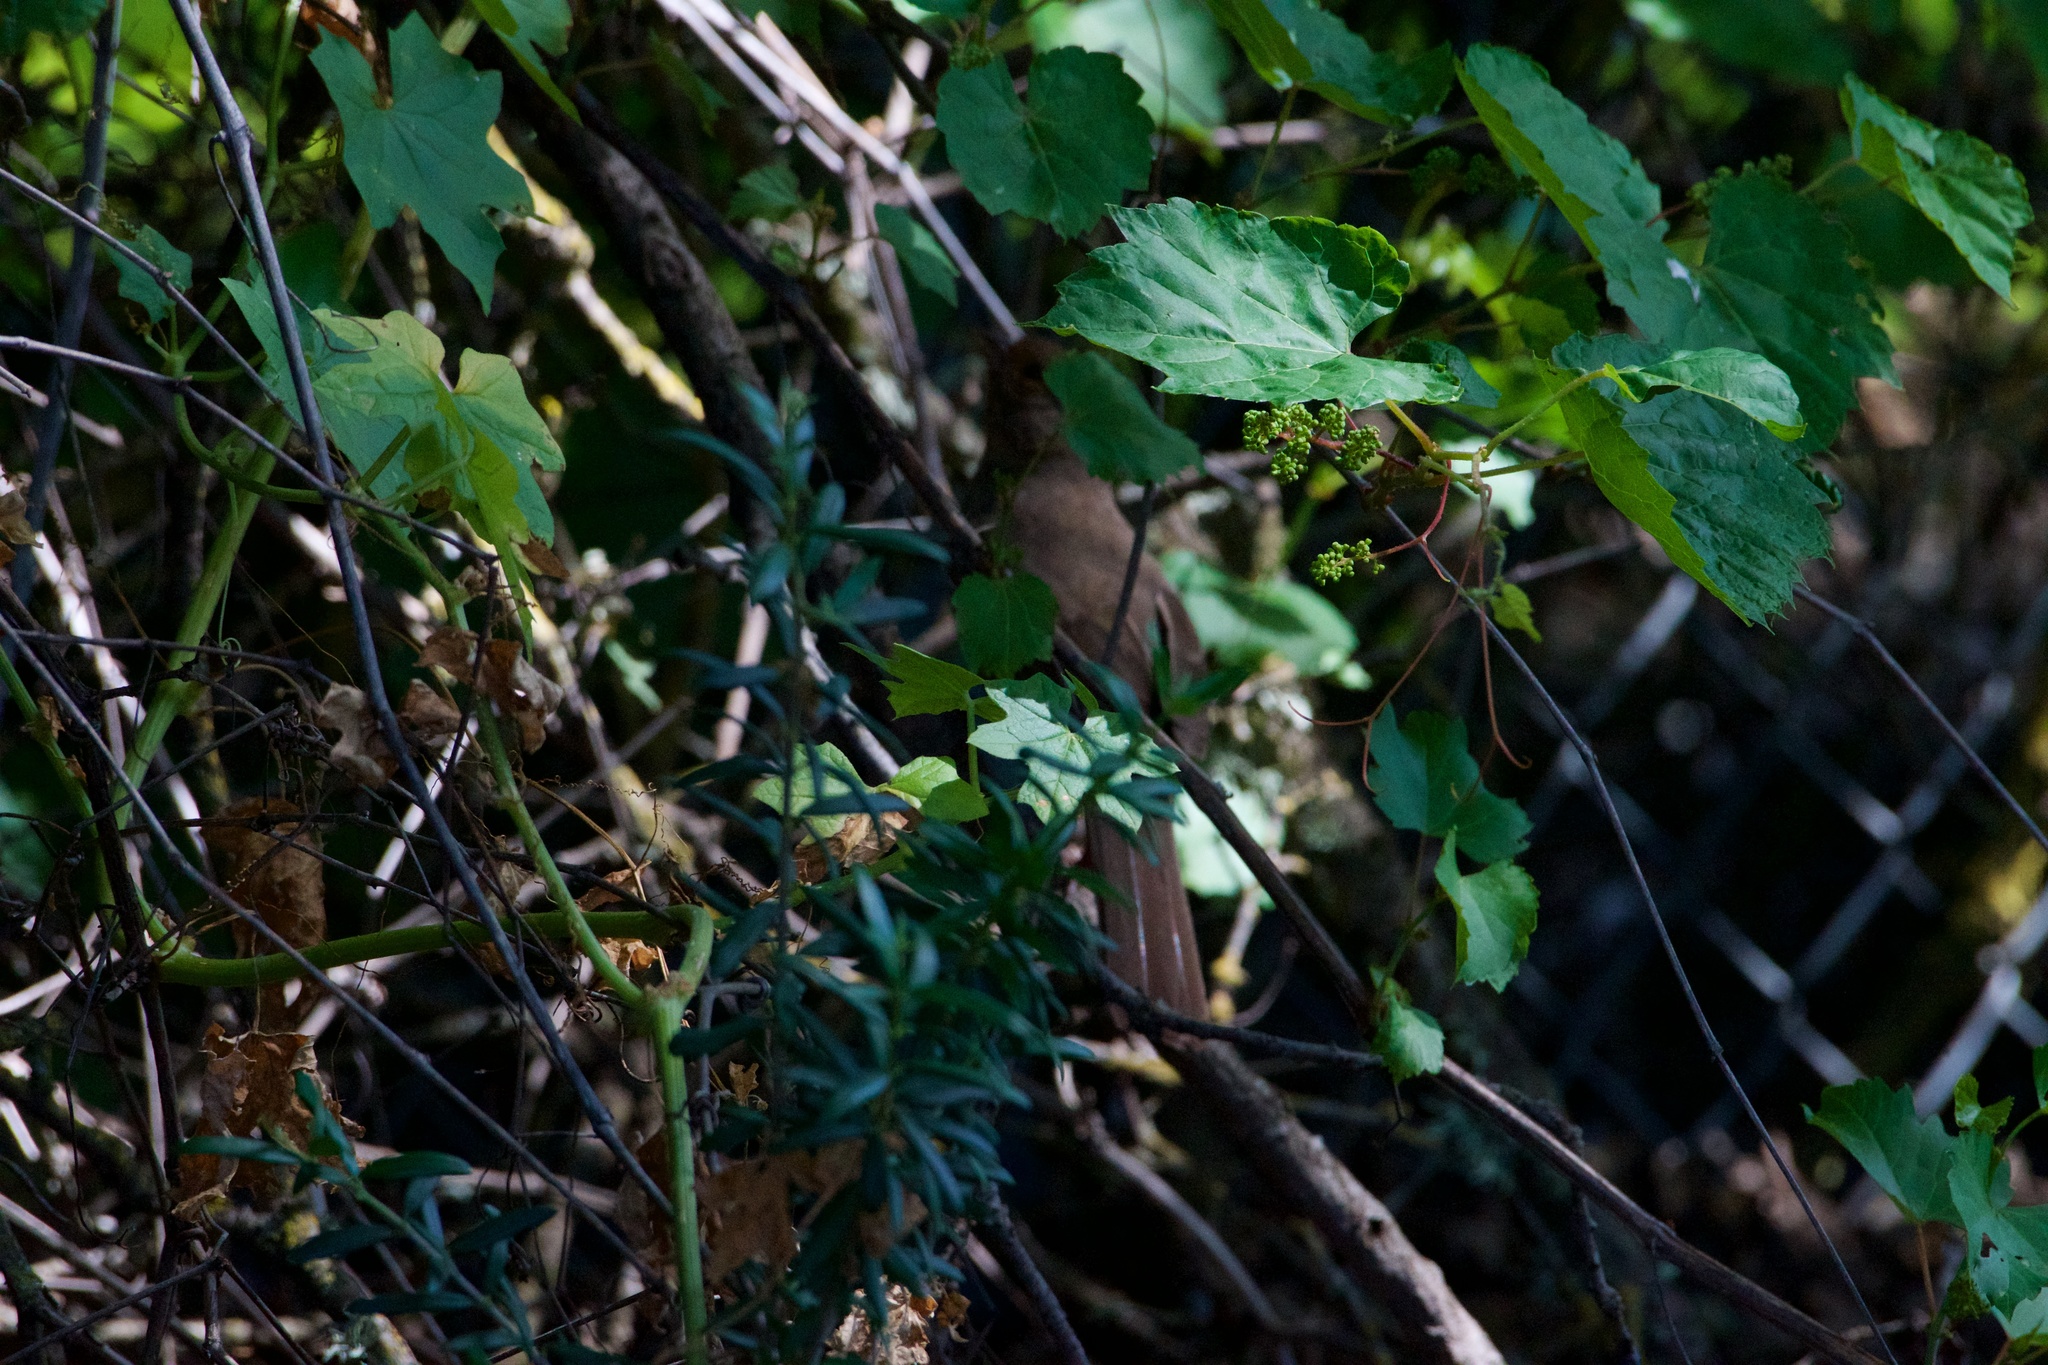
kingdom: Animalia
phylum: Chordata
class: Aves
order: Passeriformes
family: Passerellidae
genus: Melozone
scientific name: Melozone crissalis
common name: California towhee
